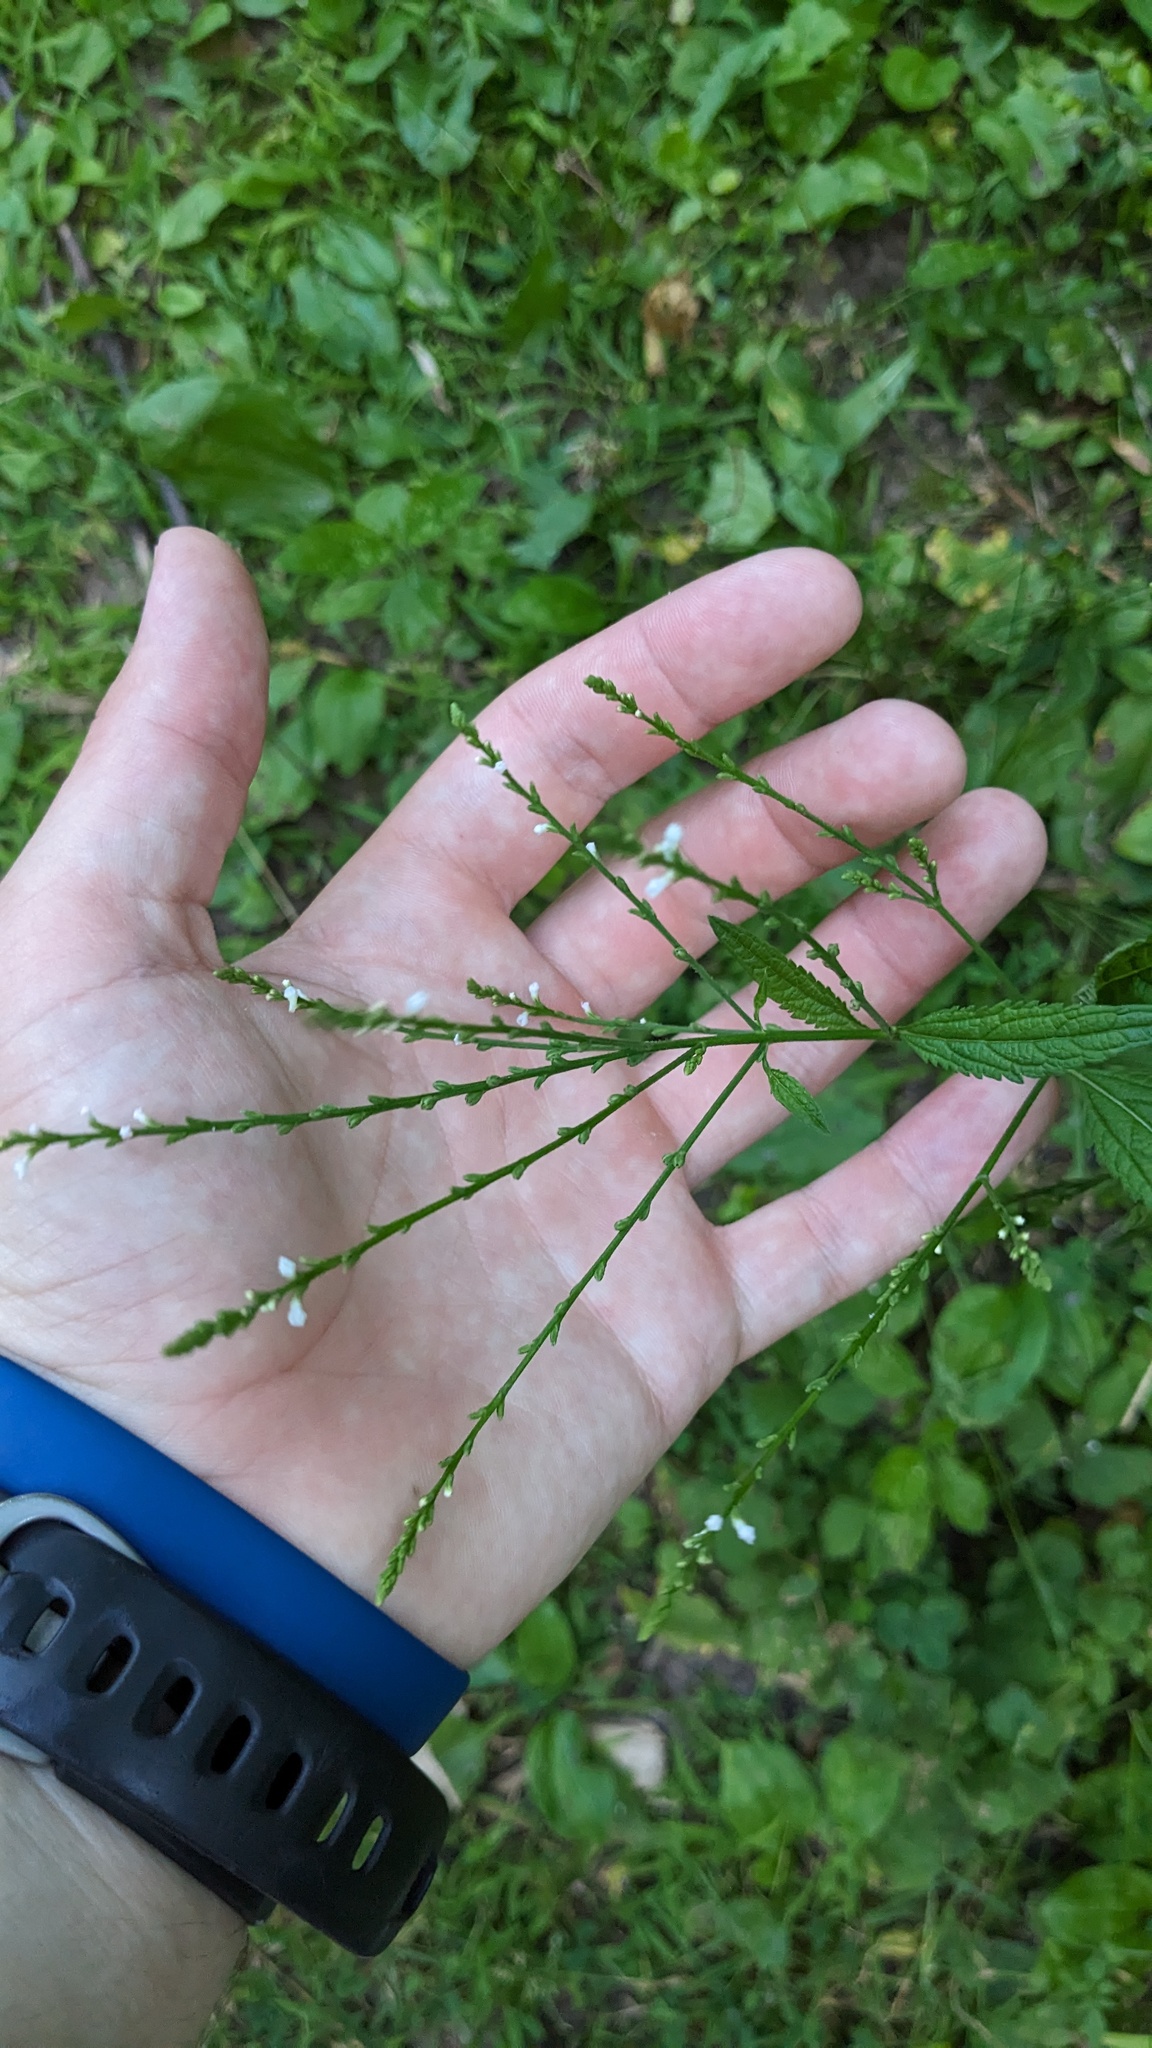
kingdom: Plantae
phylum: Tracheophyta
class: Magnoliopsida
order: Lamiales
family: Verbenaceae
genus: Verbena
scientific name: Verbena urticifolia
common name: Nettle-leaved vervain
